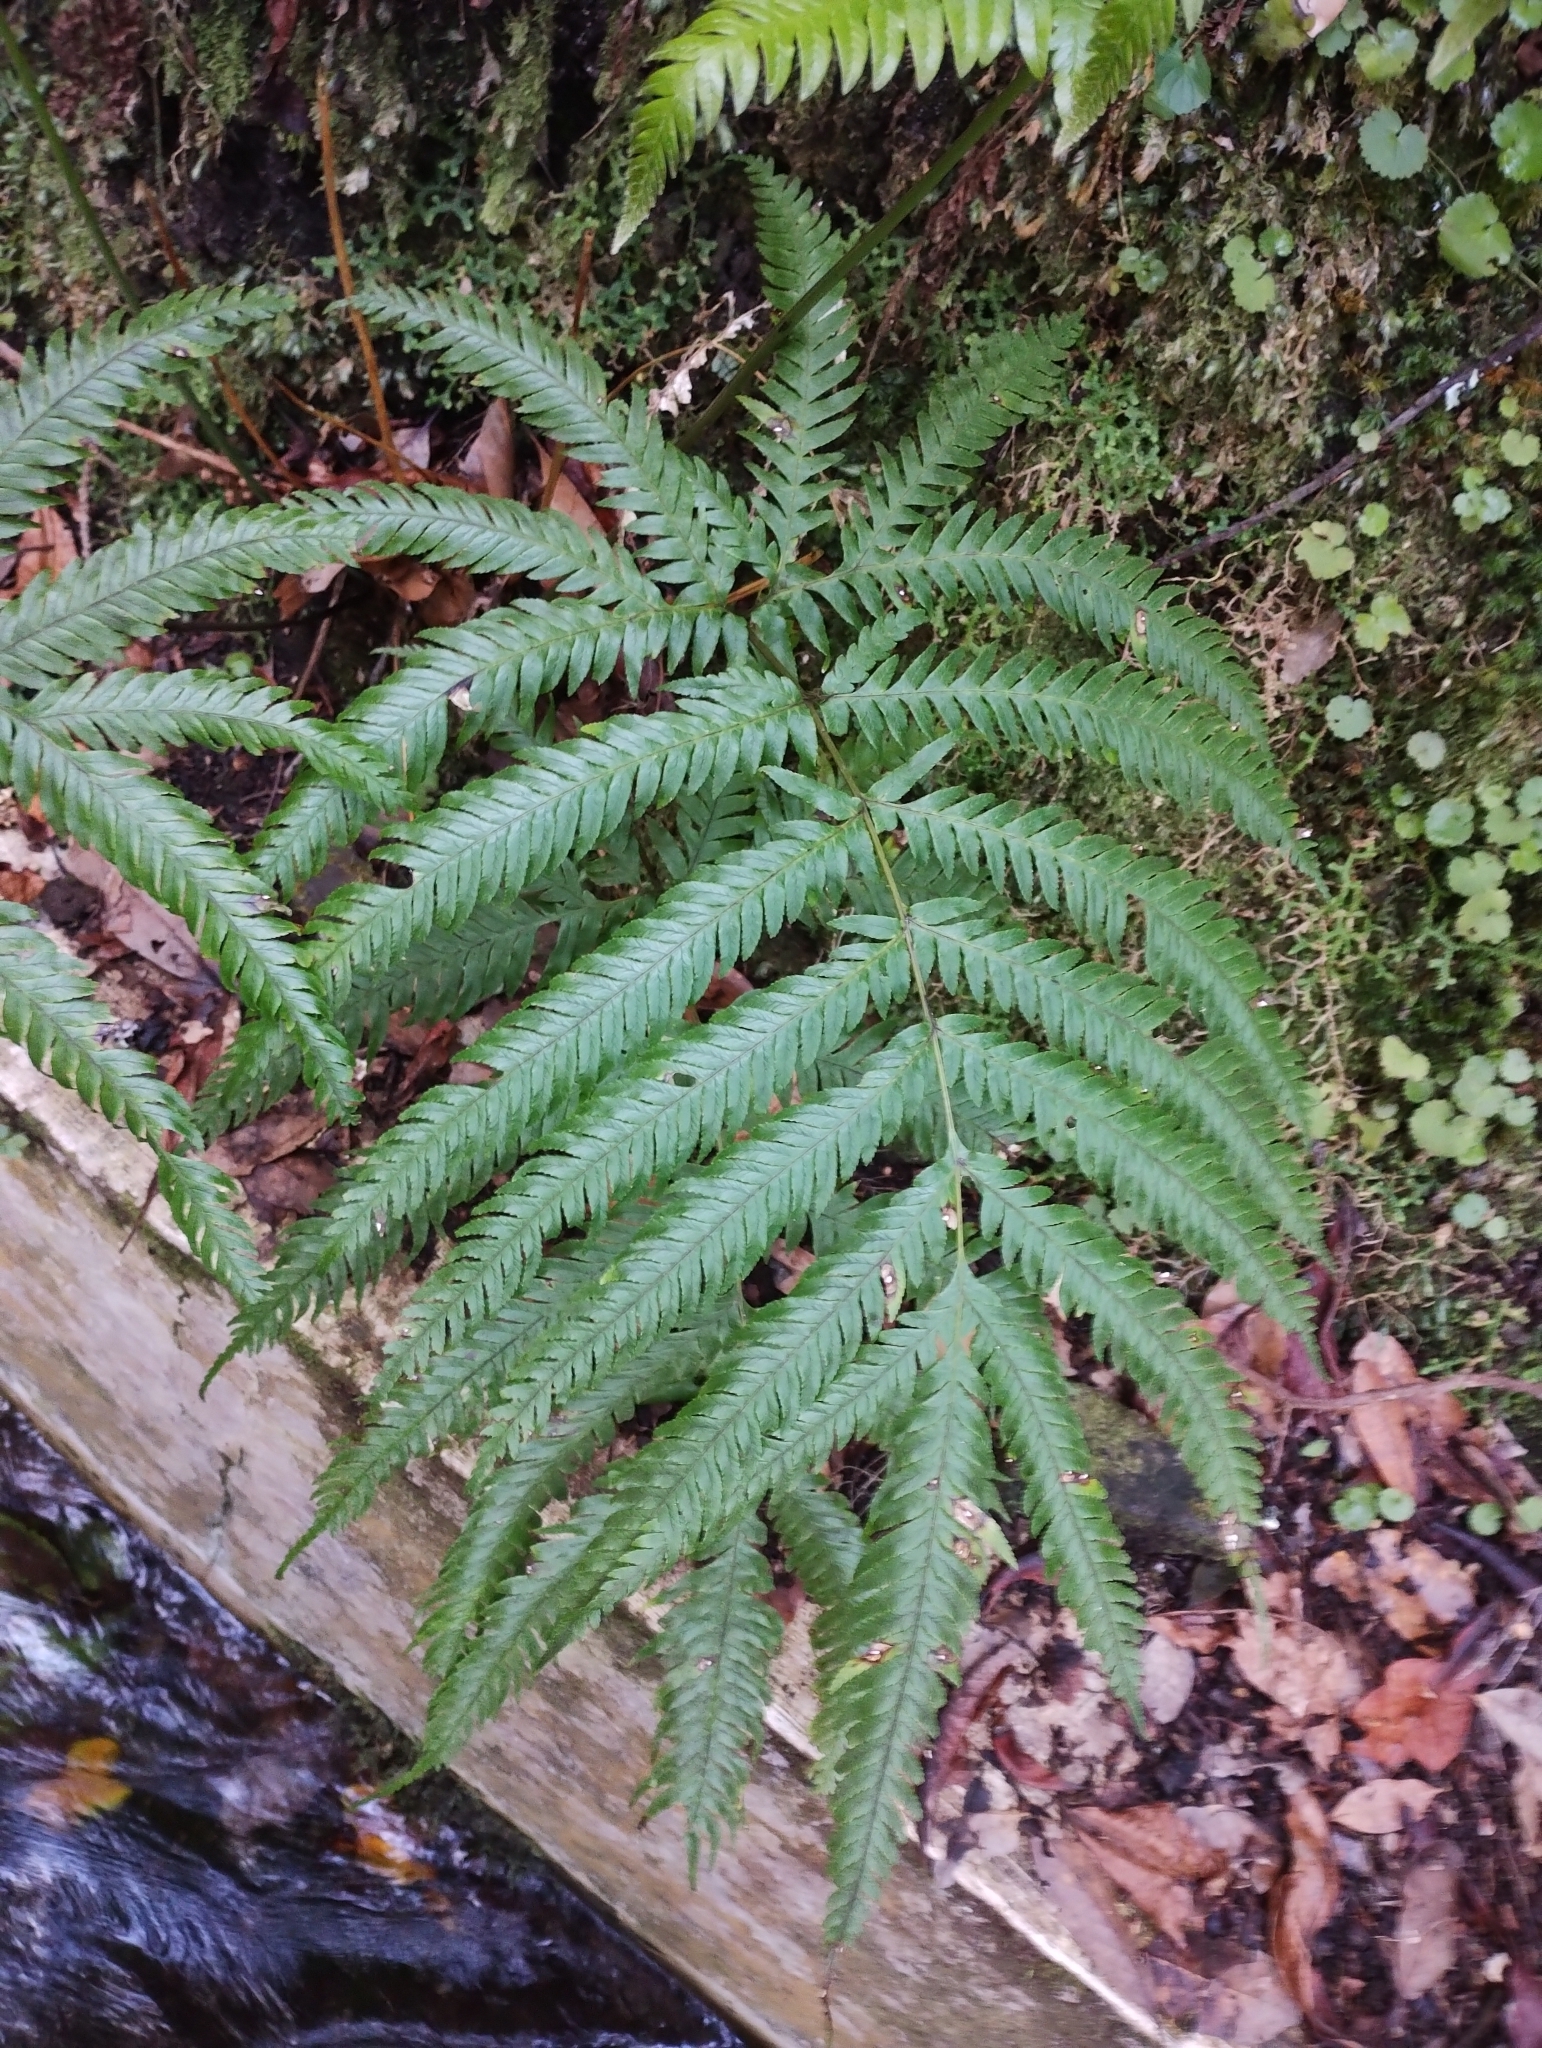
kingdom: Plantae
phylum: Tracheophyta
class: Polypodiopsida
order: Polypodiales
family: Pteridaceae
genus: Pteris
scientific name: Pteris incompleta
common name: Laurisilva brake
